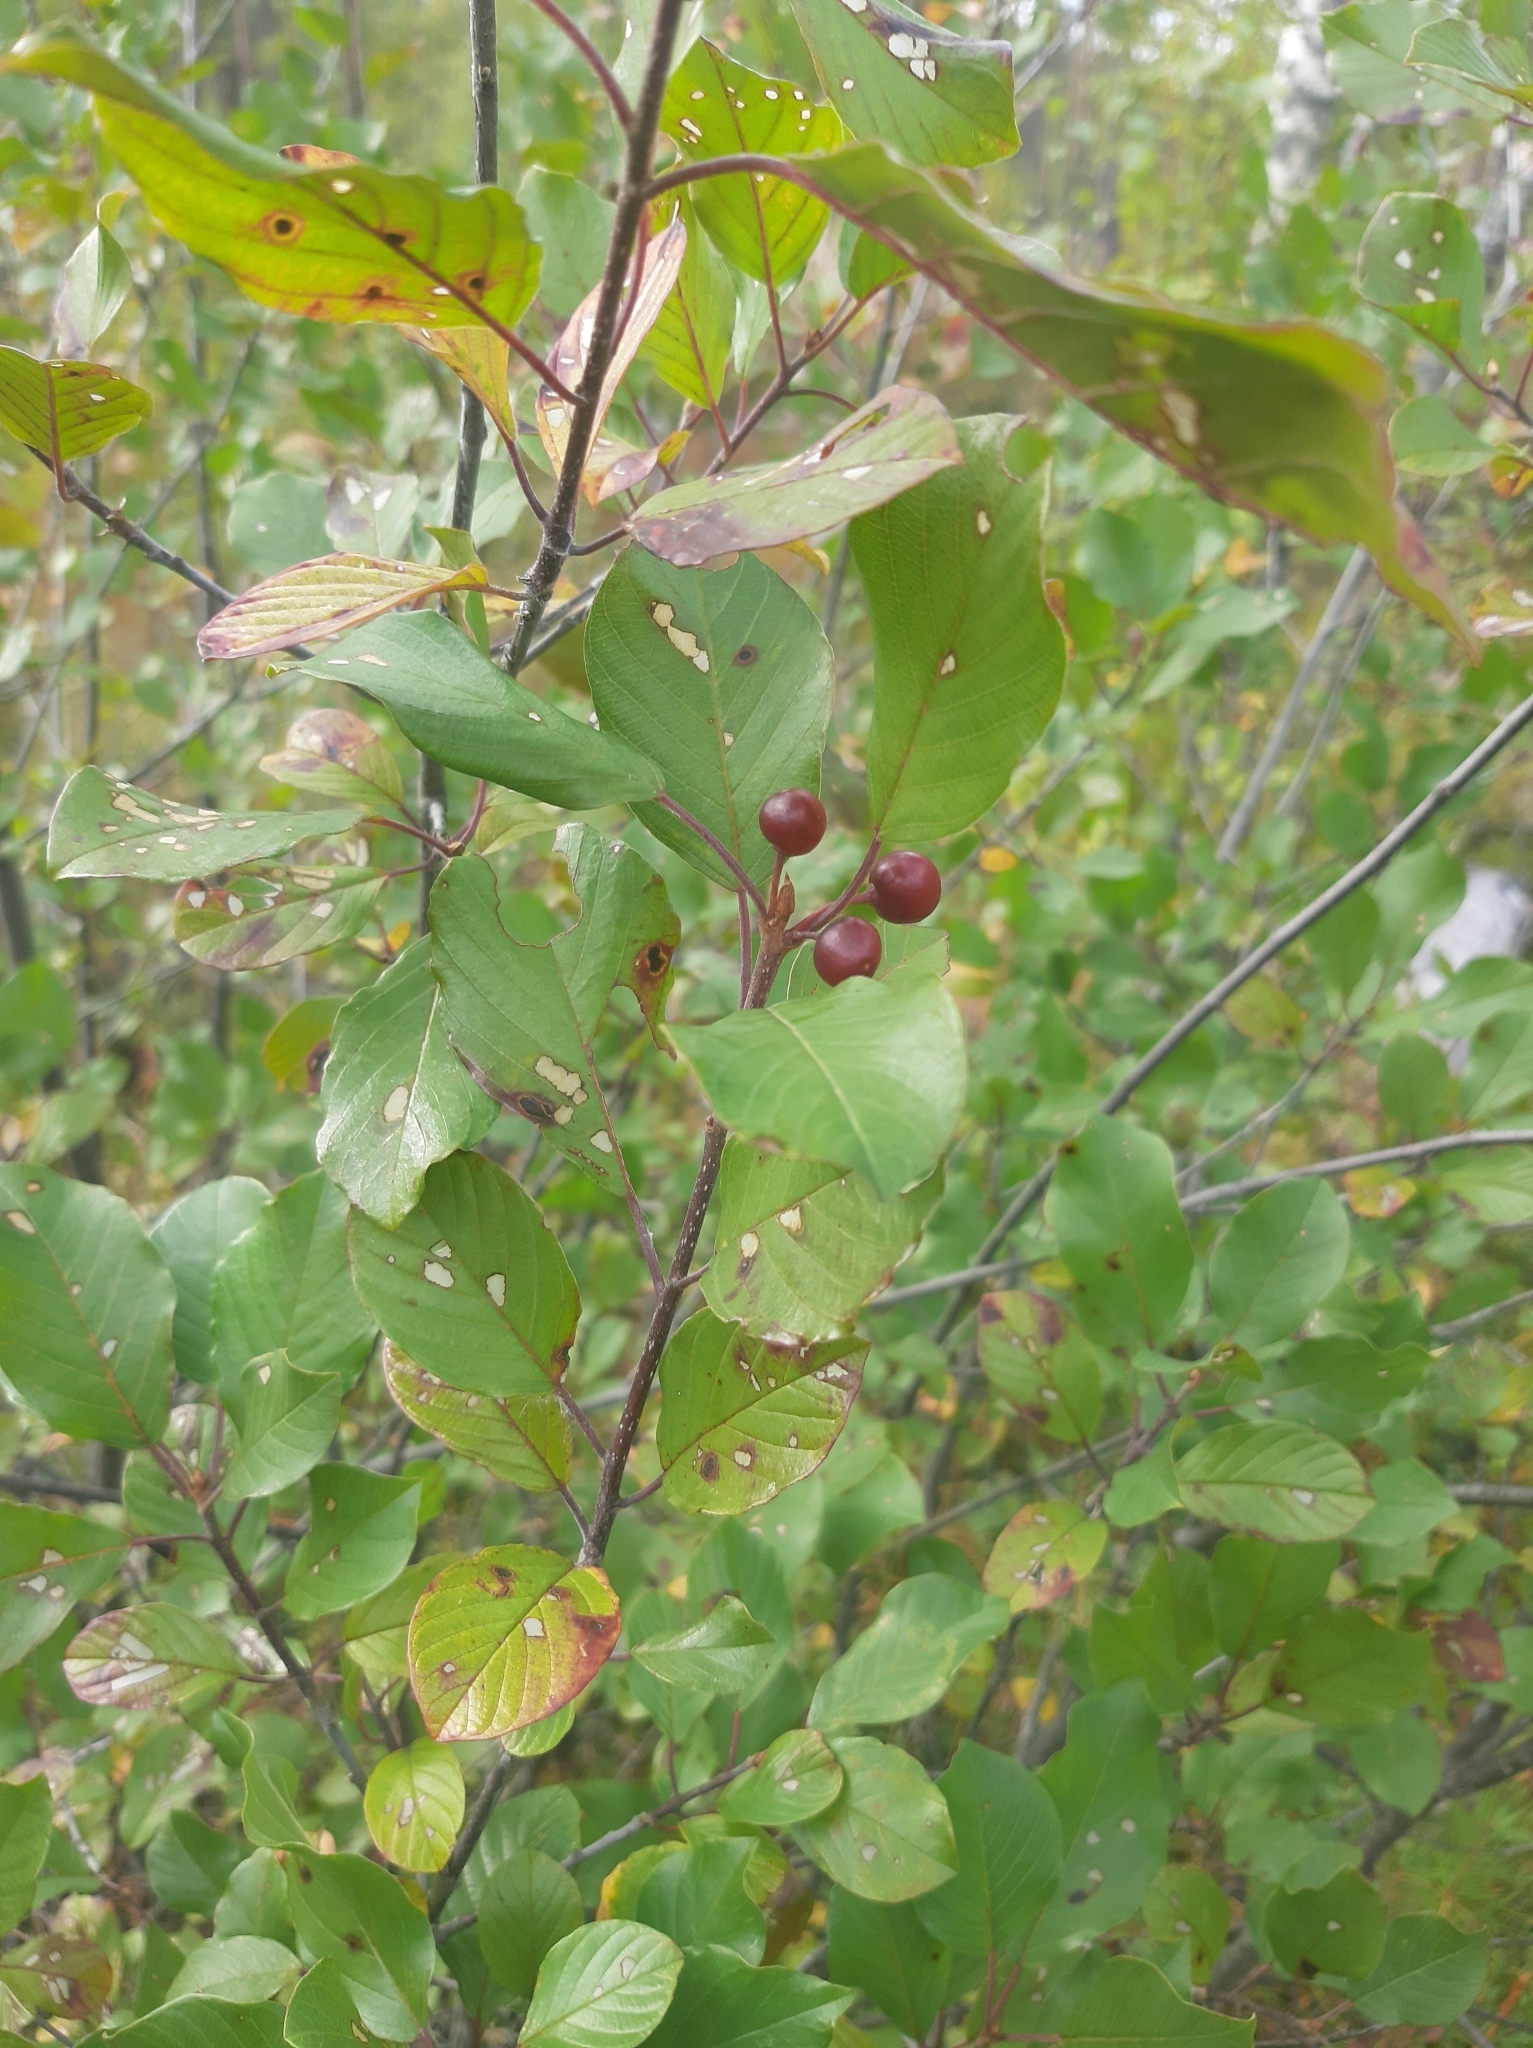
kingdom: Plantae
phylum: Tracheophyta
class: Magnoliopsida
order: Rosales
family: Rhamnaceae
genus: Frangula
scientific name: Frangula alnus
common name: Alder buckthorn
